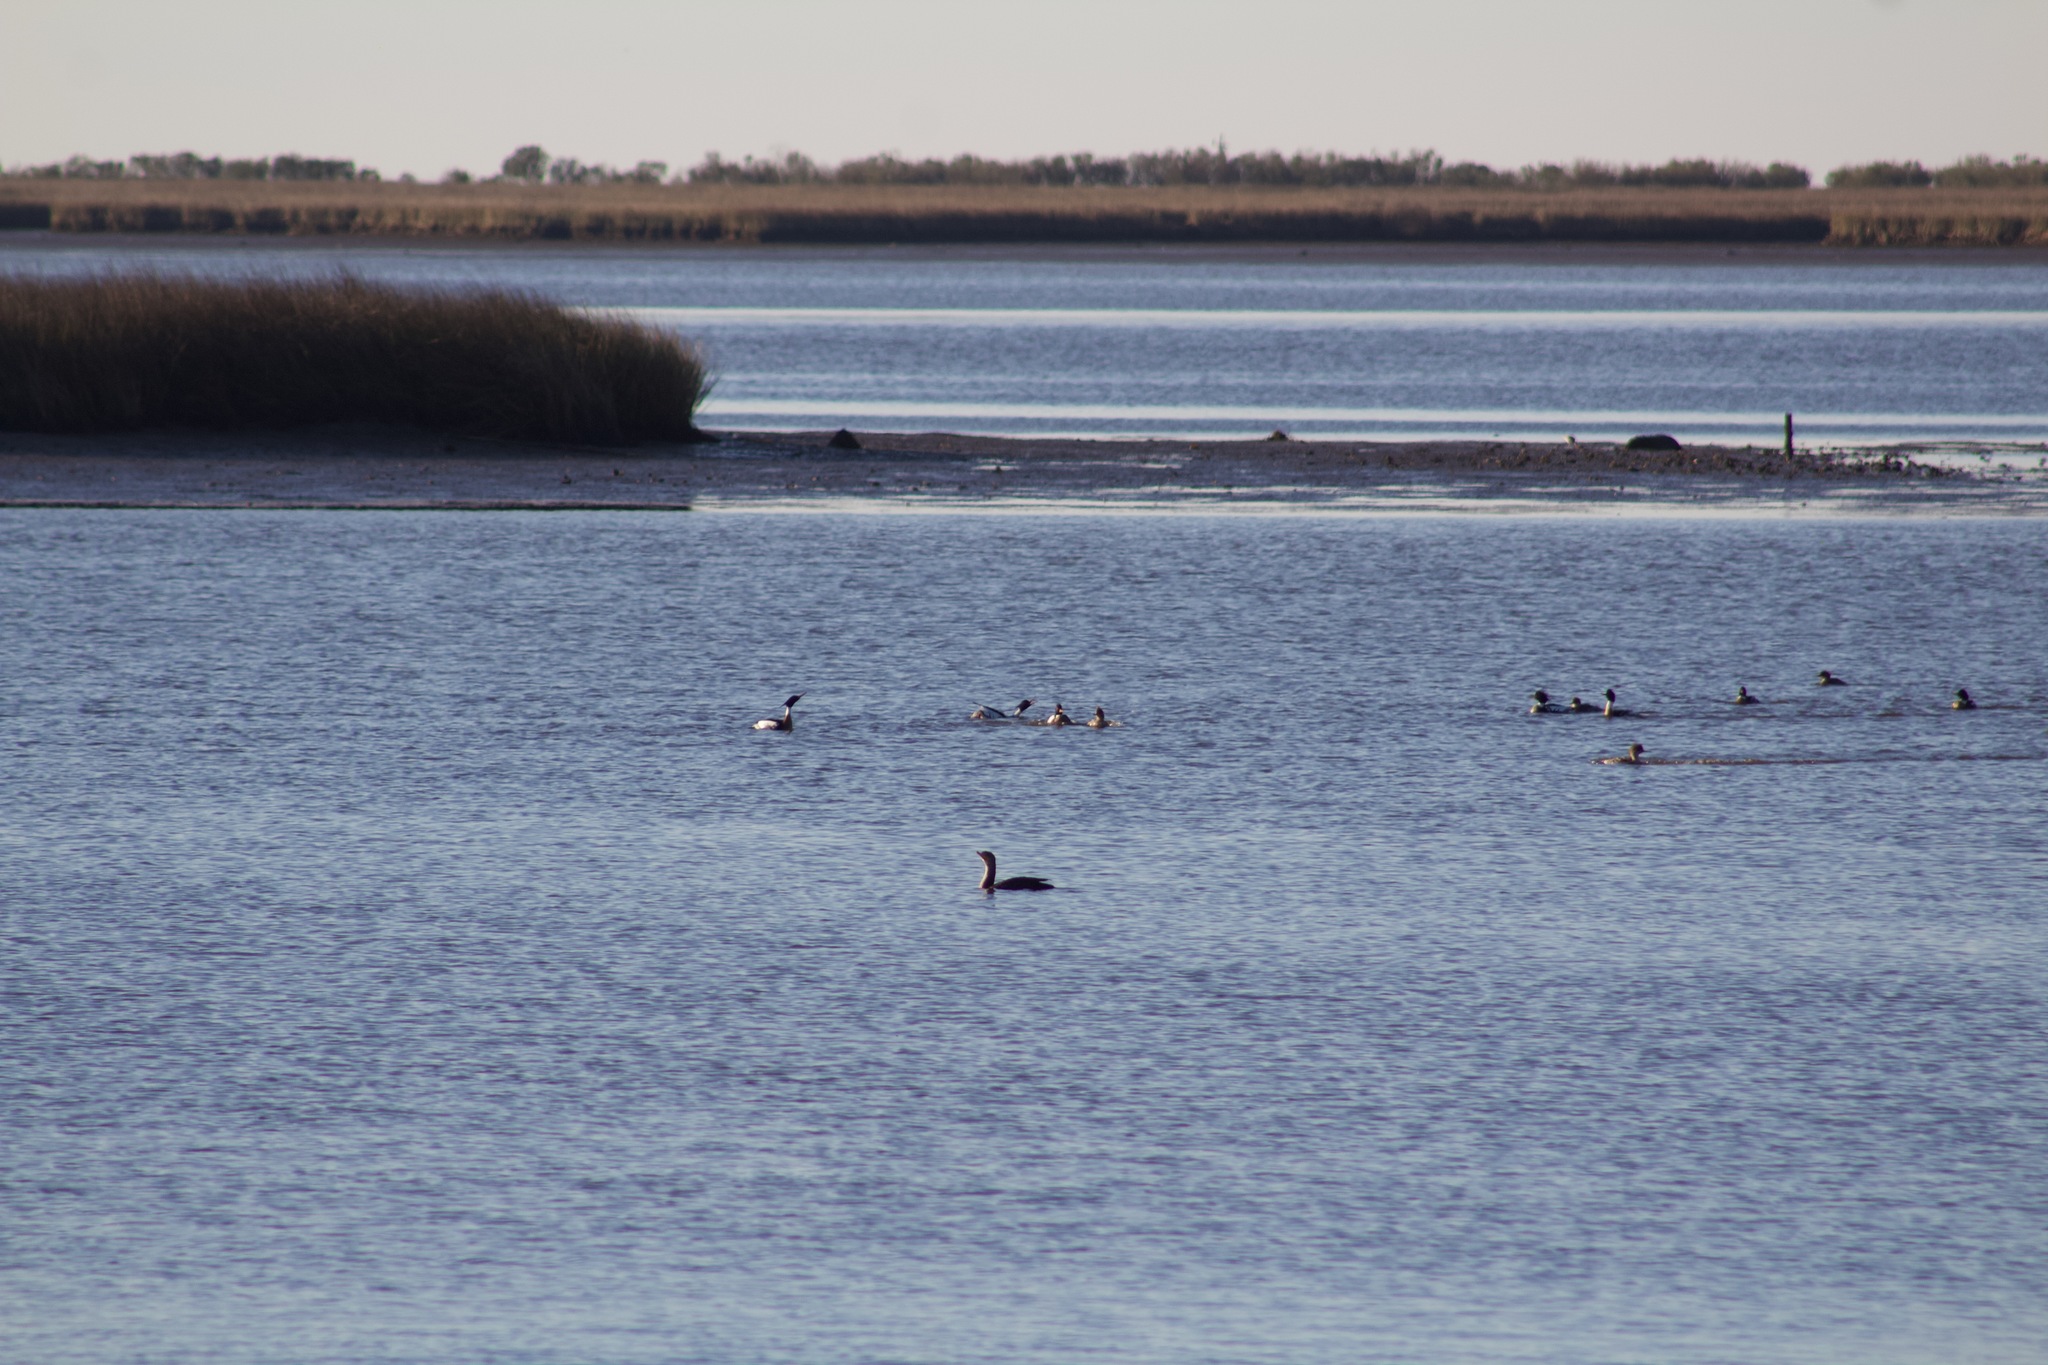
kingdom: Animalia
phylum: Chordata
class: Aves
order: Anseriformes
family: Anatidae
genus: Mergus
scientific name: Mergus serrator
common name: Red-breasted merganser
